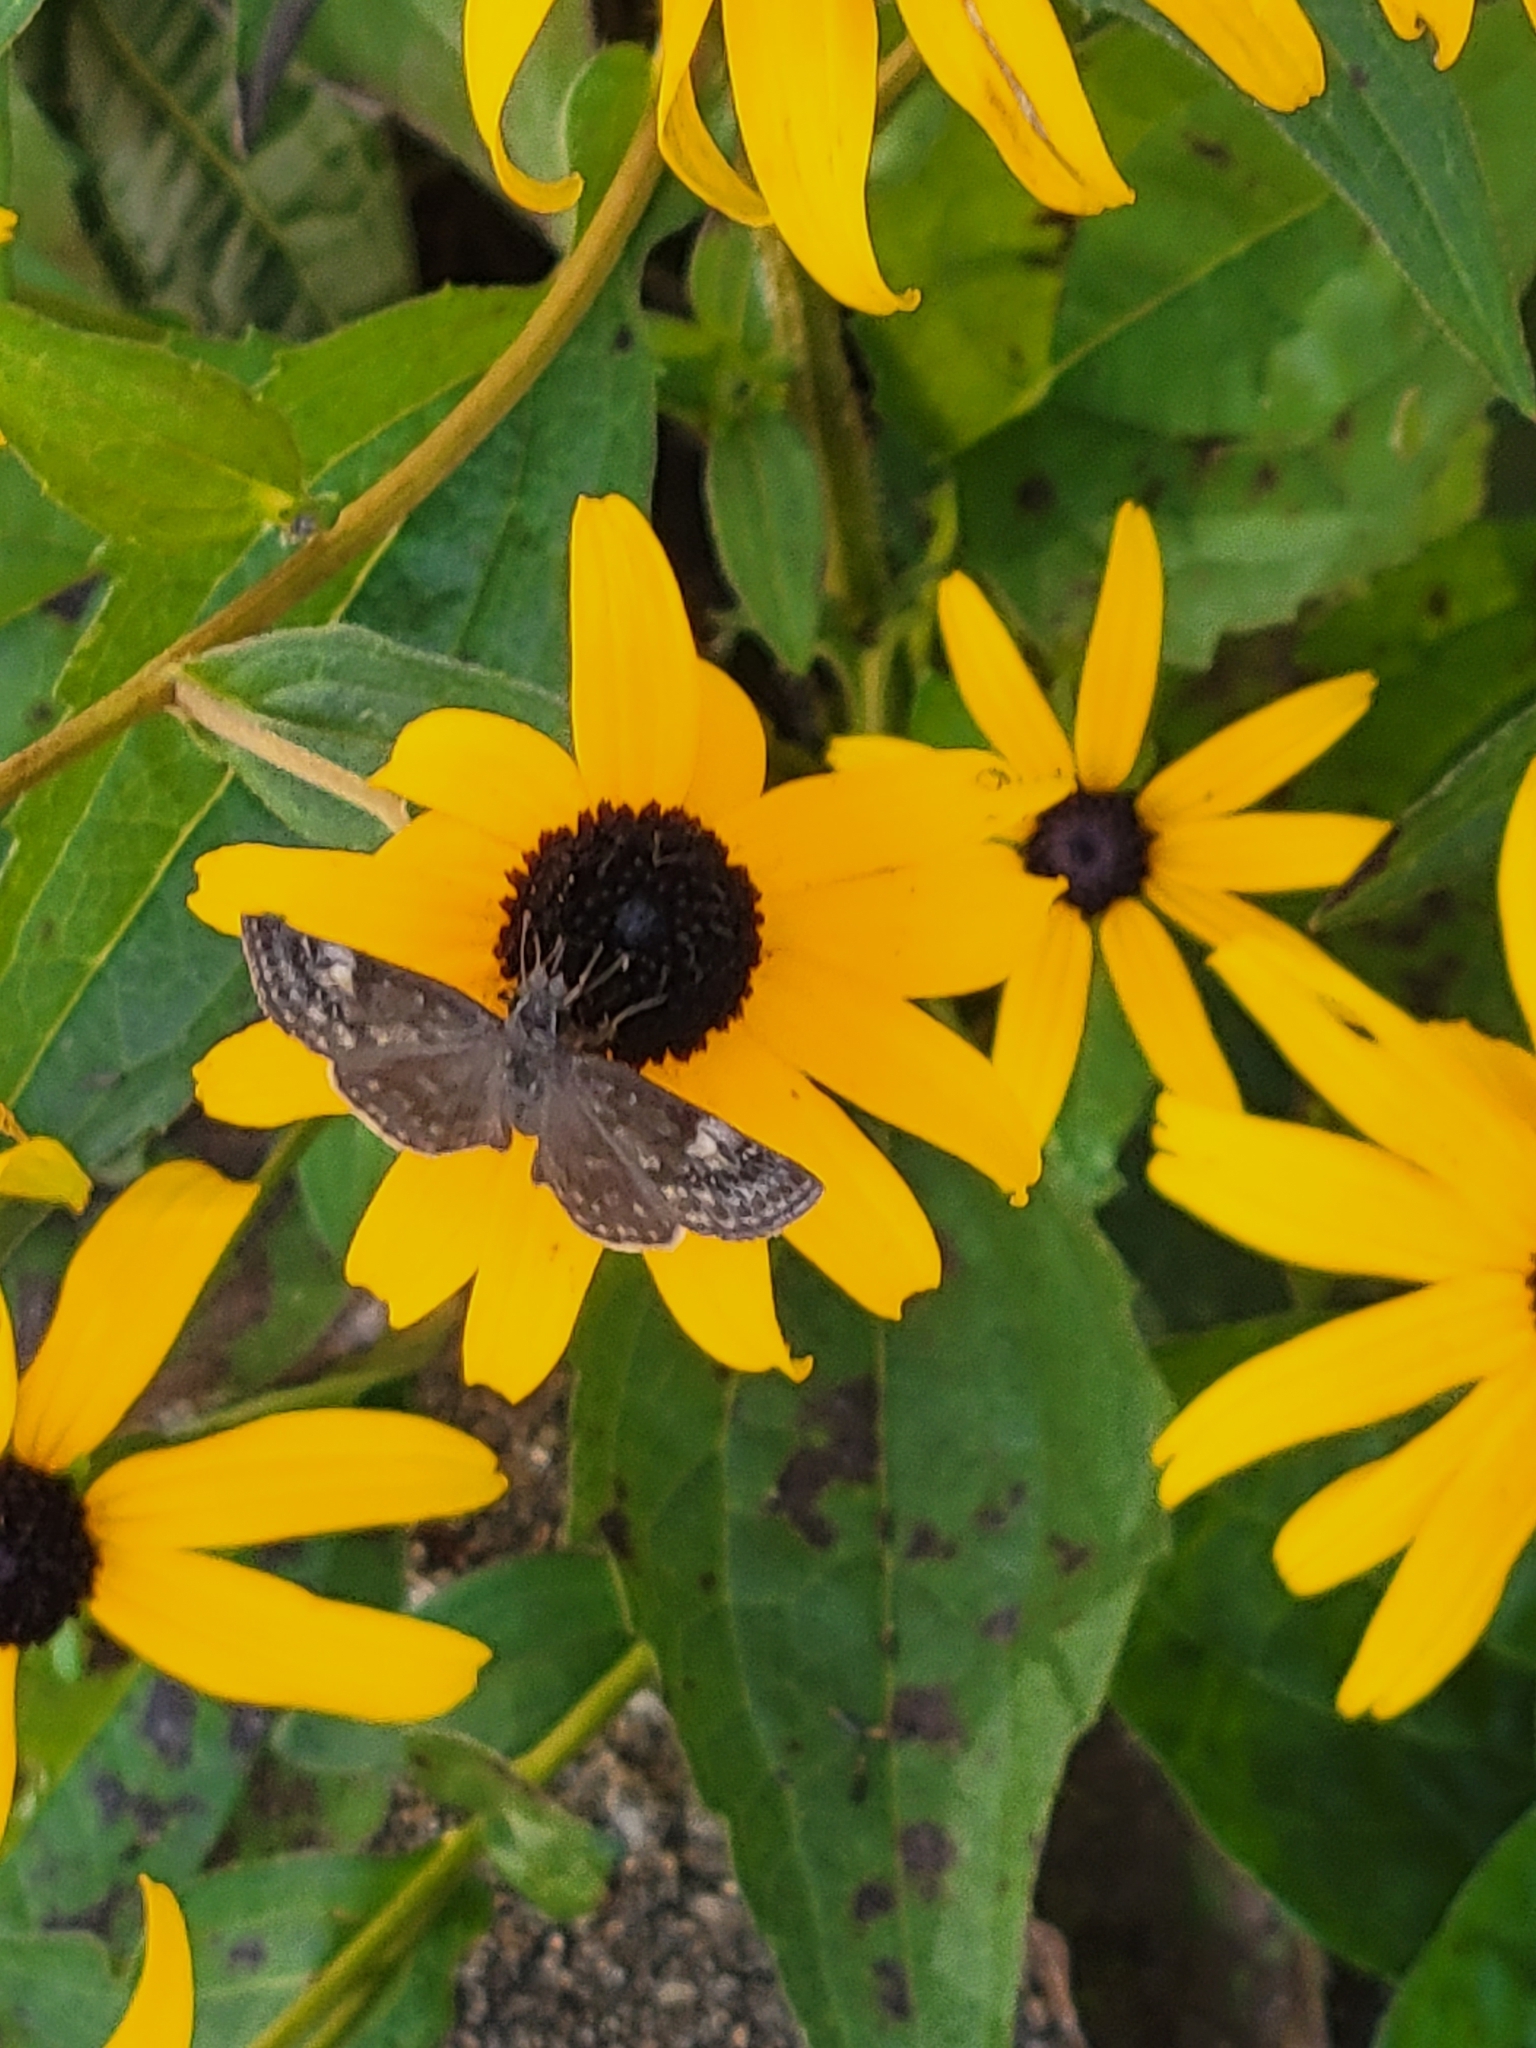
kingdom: Animalia
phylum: Arthropoda
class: Insecta
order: Lepidoptera
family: Hesperiidae
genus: Erynnis
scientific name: Erynnis baptisiae
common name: Wild indigo duskywing
